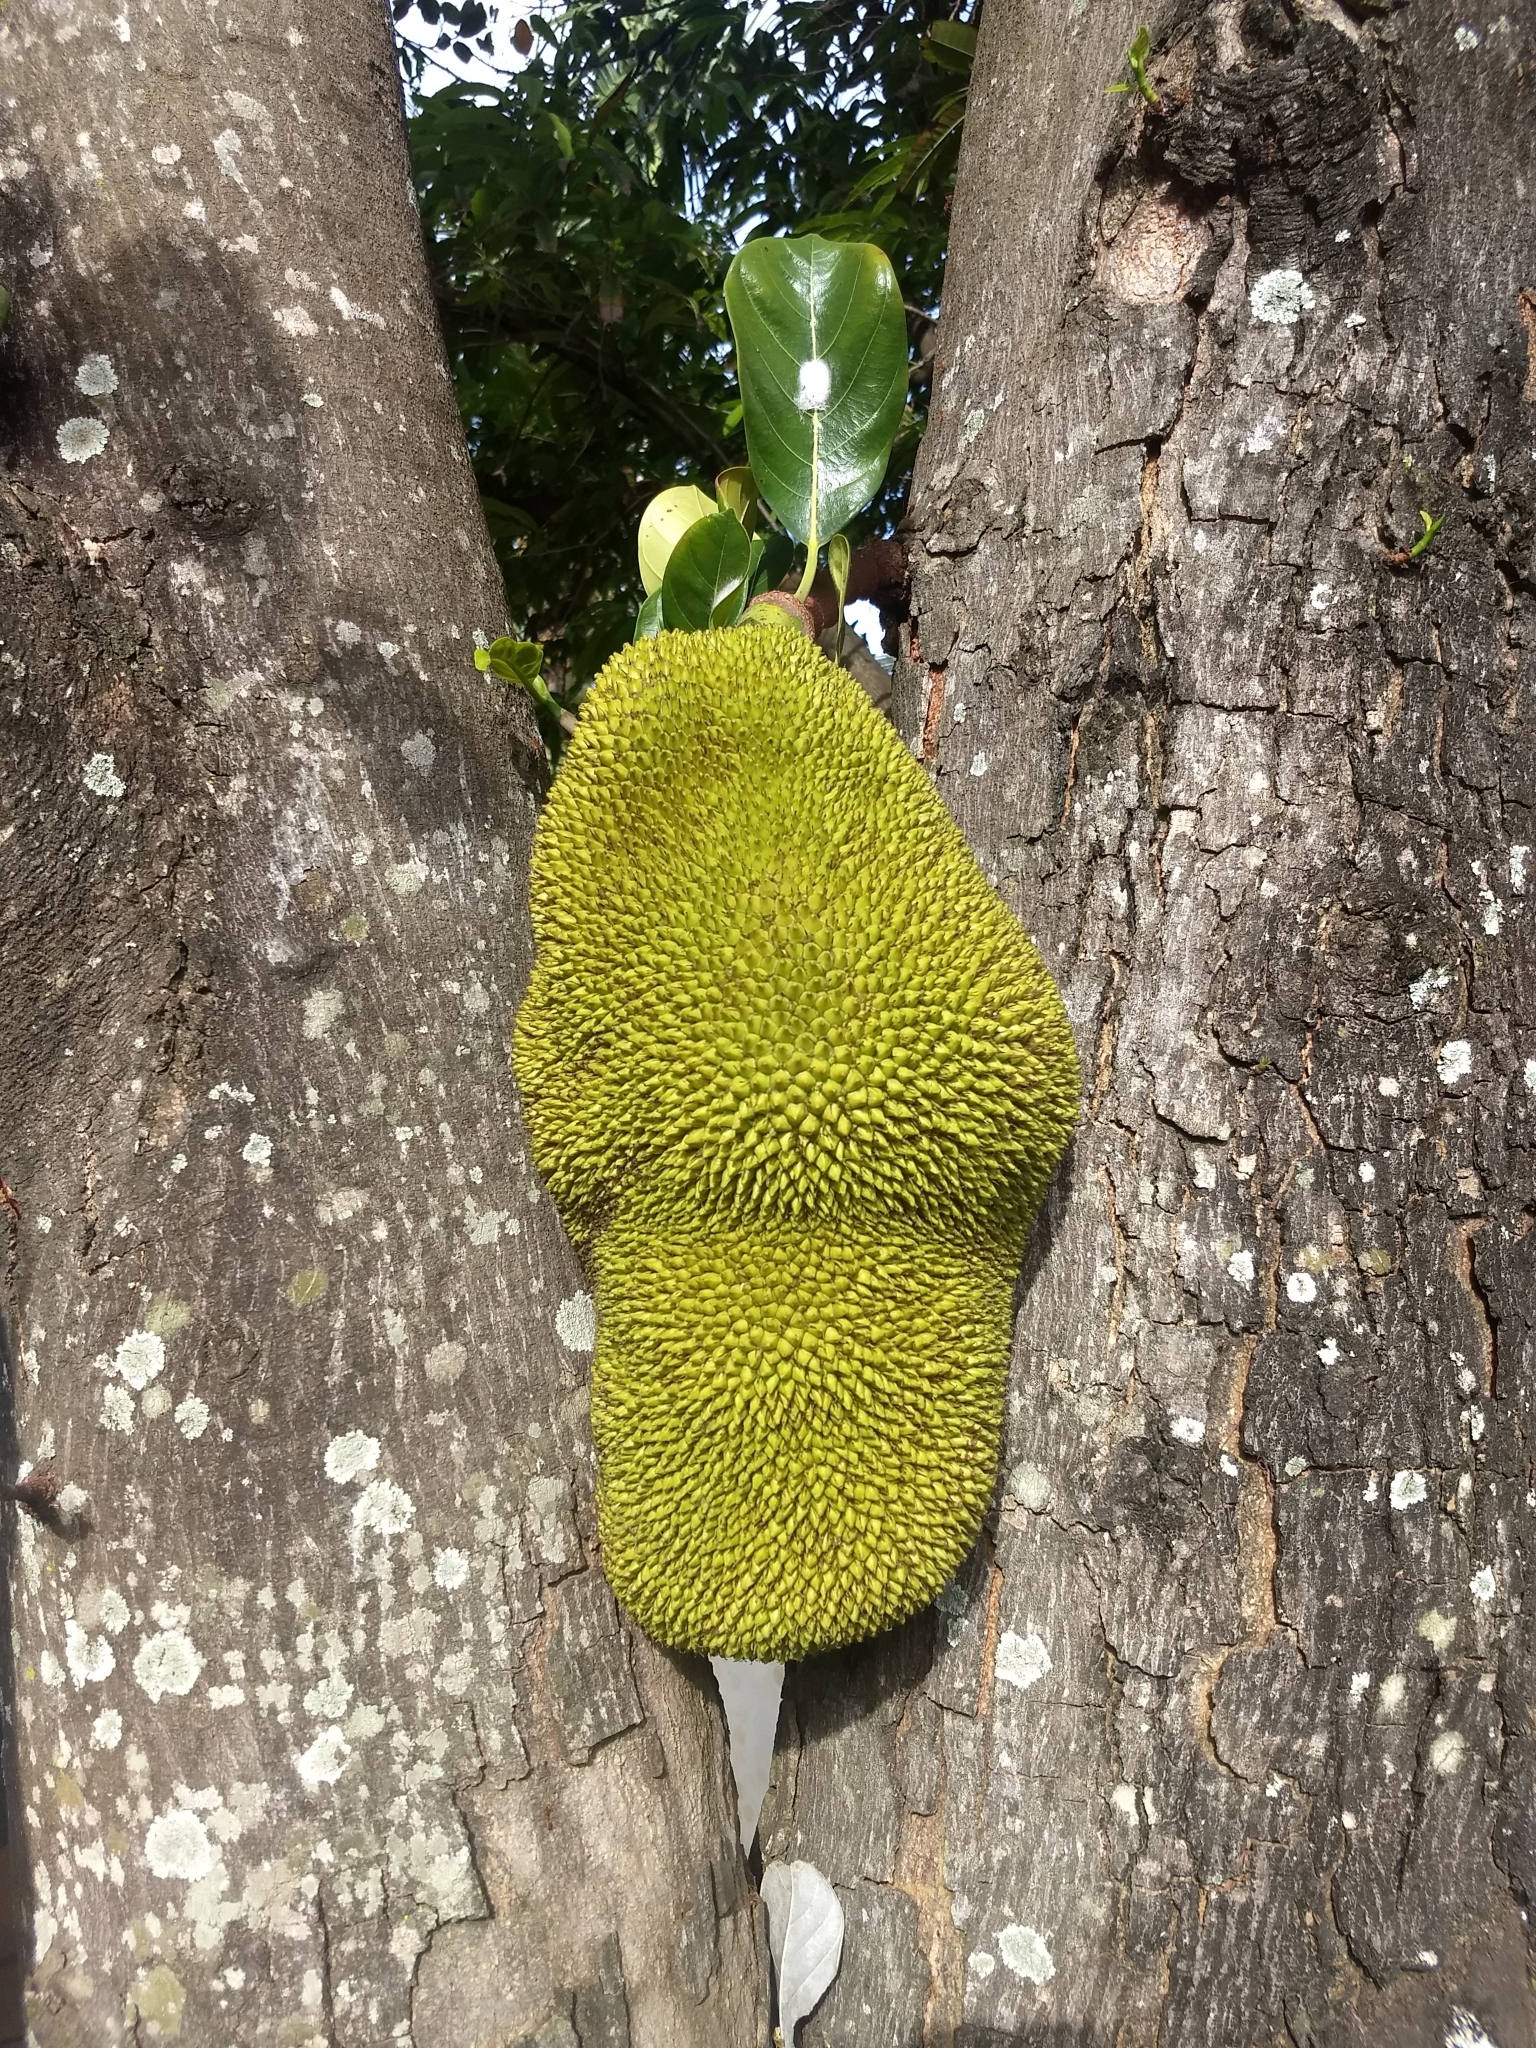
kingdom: Plantae
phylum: Tracheophyta
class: Magnoliopsida
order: Rosales
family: Moraceae
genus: Artocarpus
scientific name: Artocarpus heterophyllus
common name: Jackfruit
